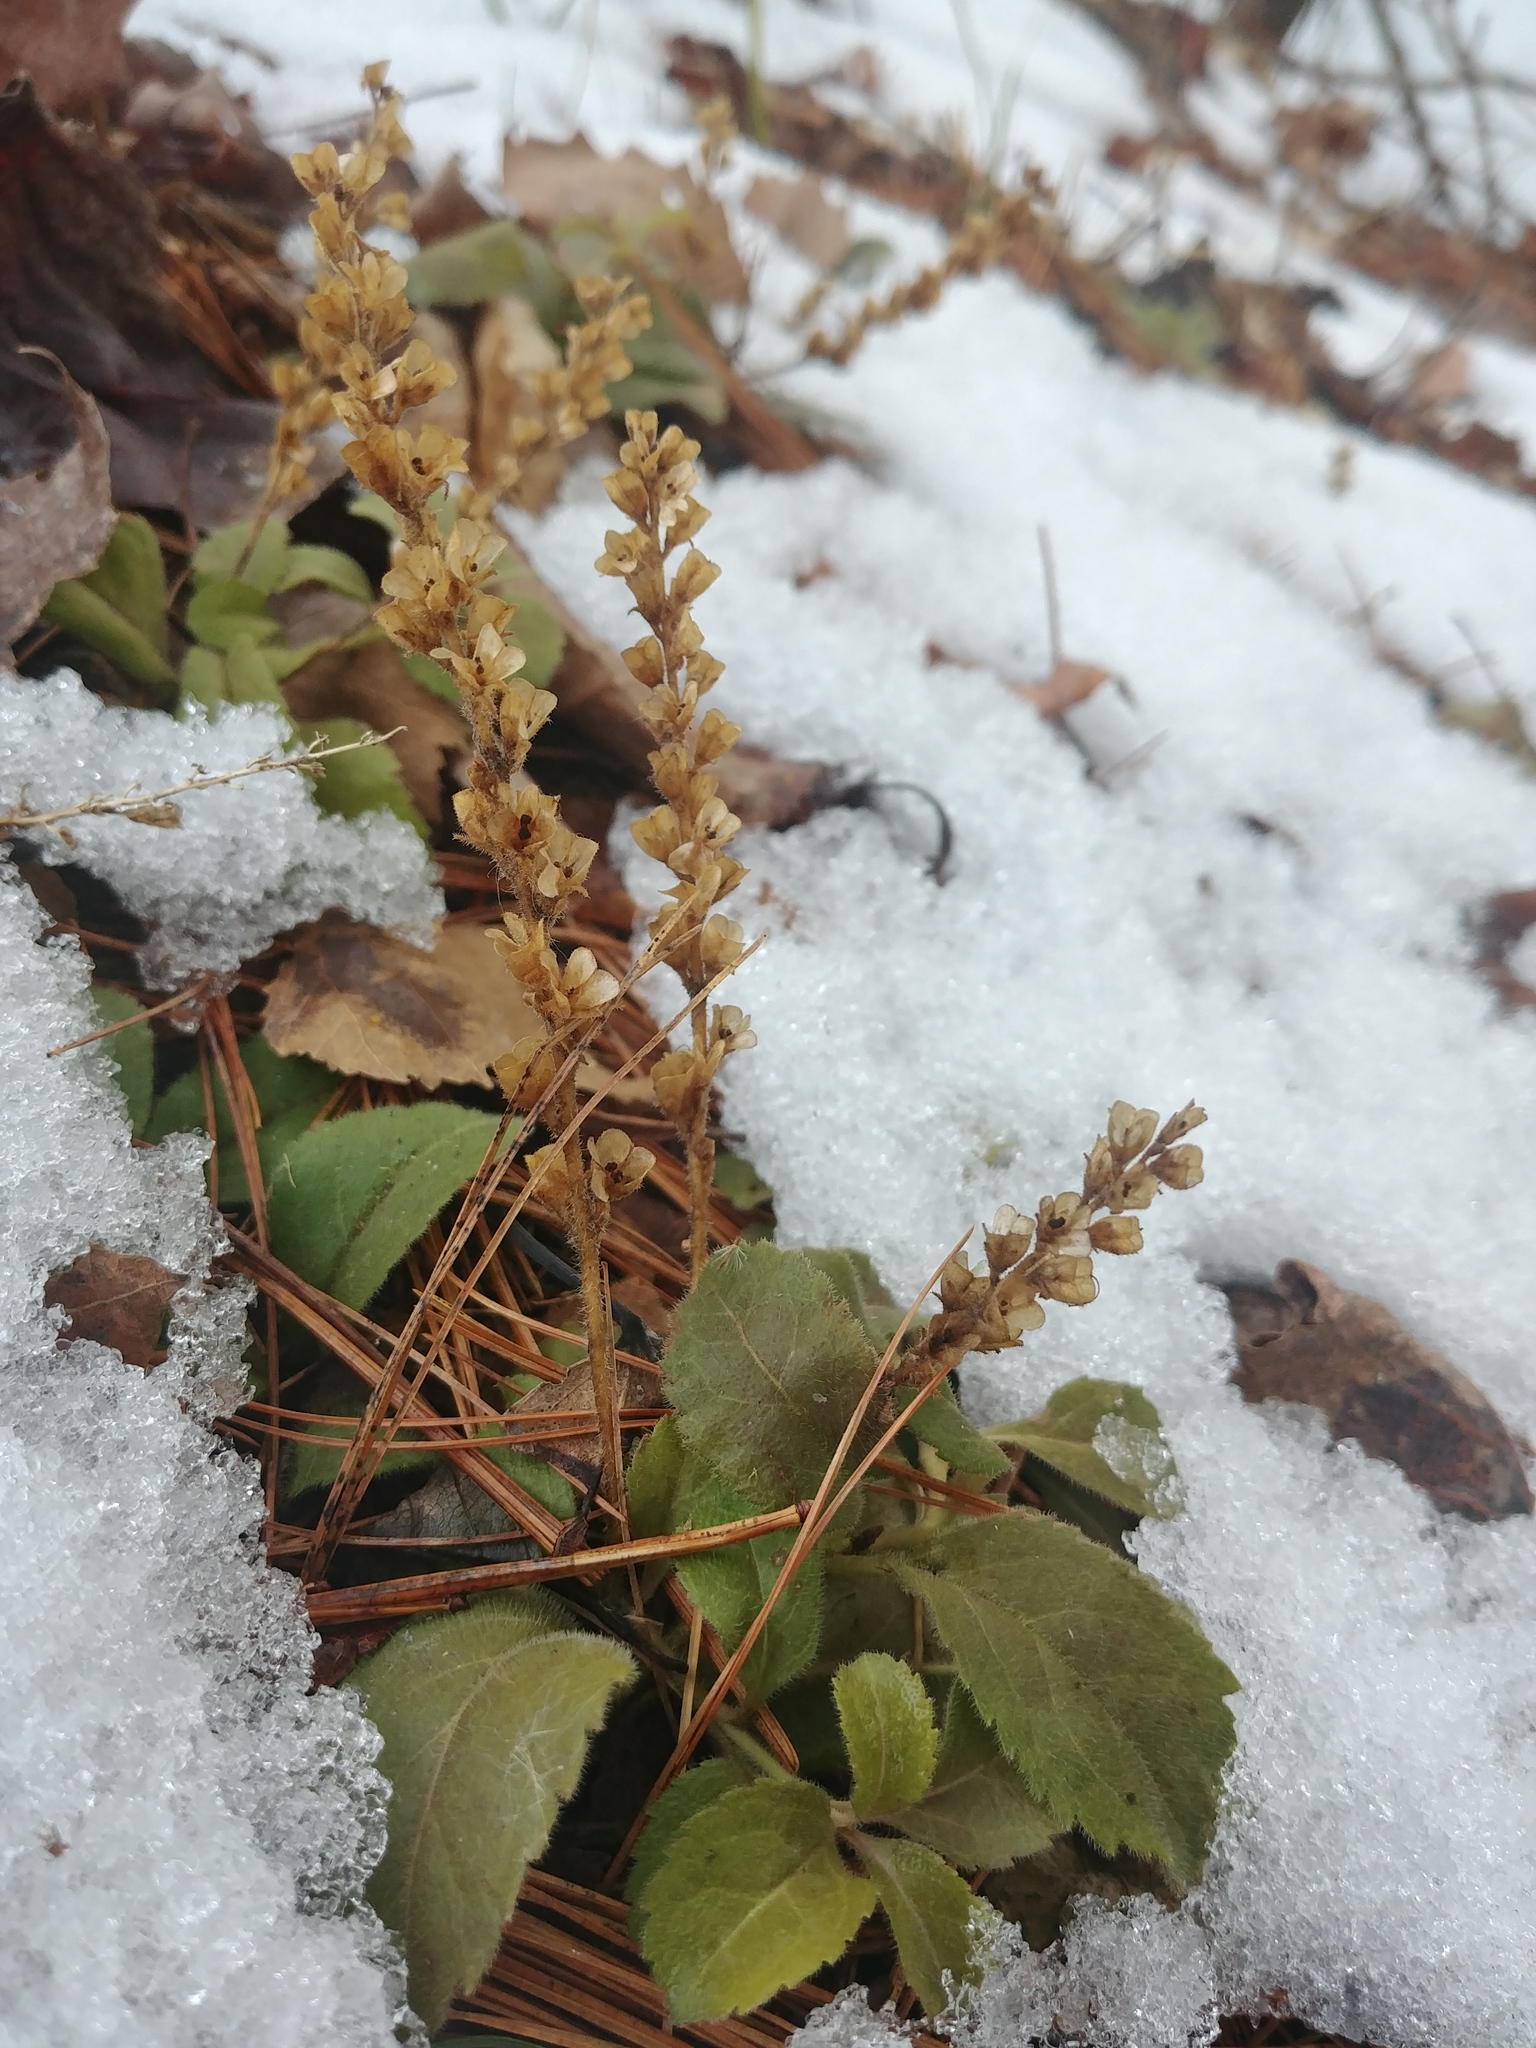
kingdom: Plantae
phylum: Tracheophyta
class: Magnoliopsida
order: Lamiales
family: Plantaginaceae
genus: Veronica
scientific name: Veronica officinalis
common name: Common speedwell
